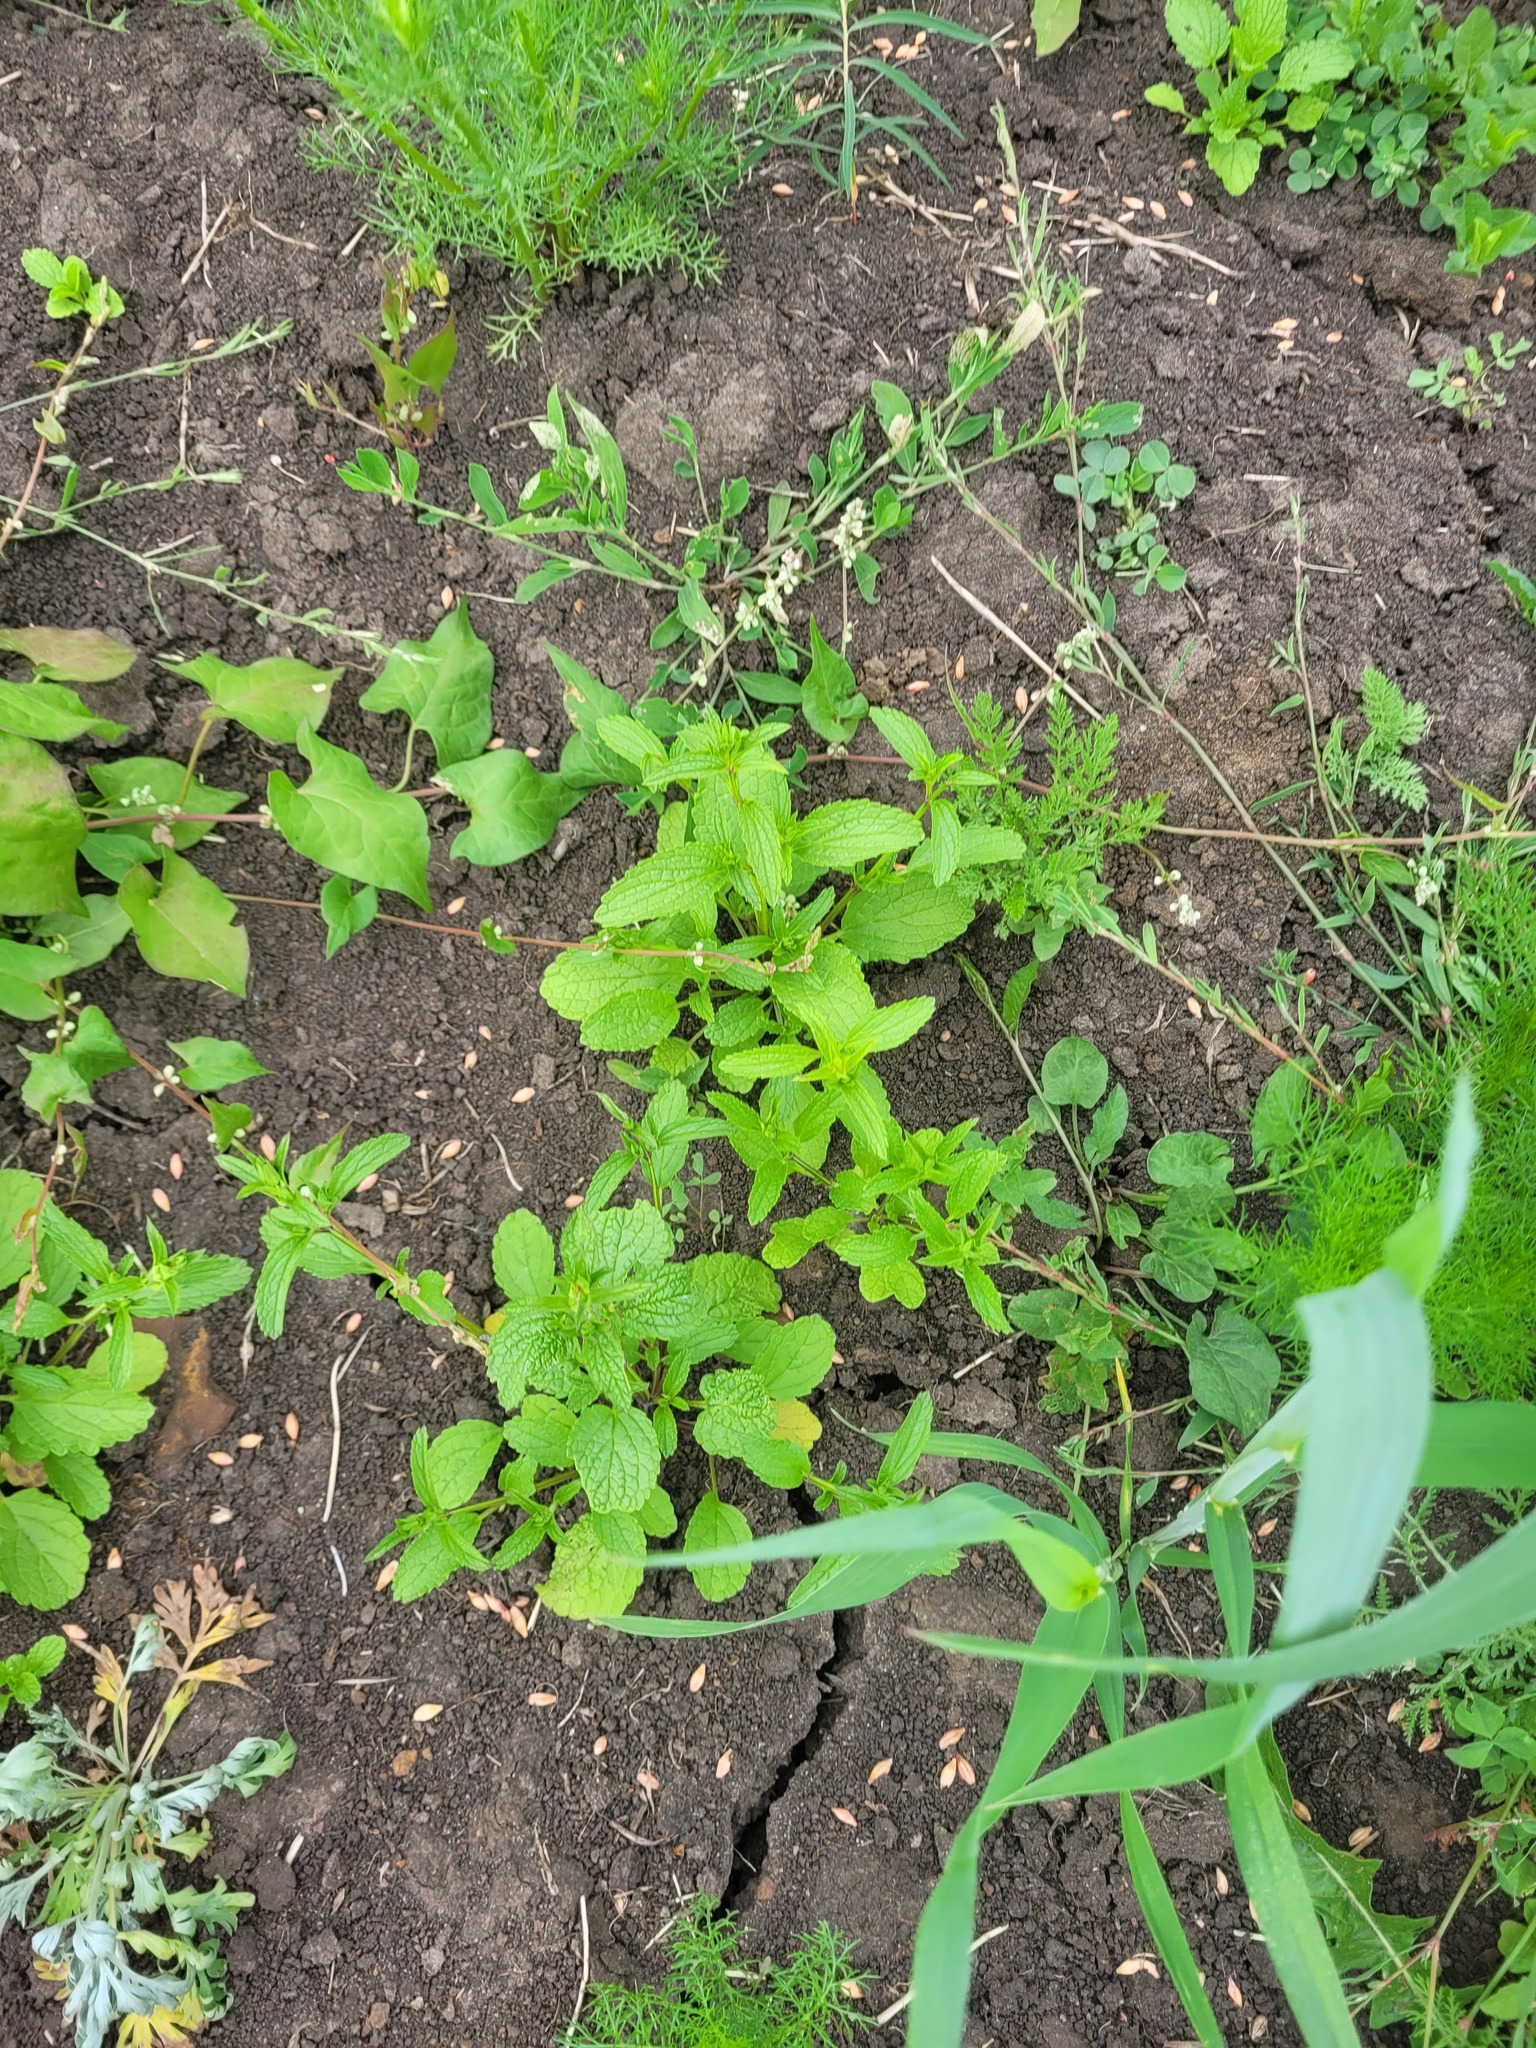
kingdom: Plantae
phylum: Tracheophyta
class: Magnoliopsida
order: Lamiales
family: Lamiaceae
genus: Stachys
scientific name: Stachys annua
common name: Annual yellow-woundwort
